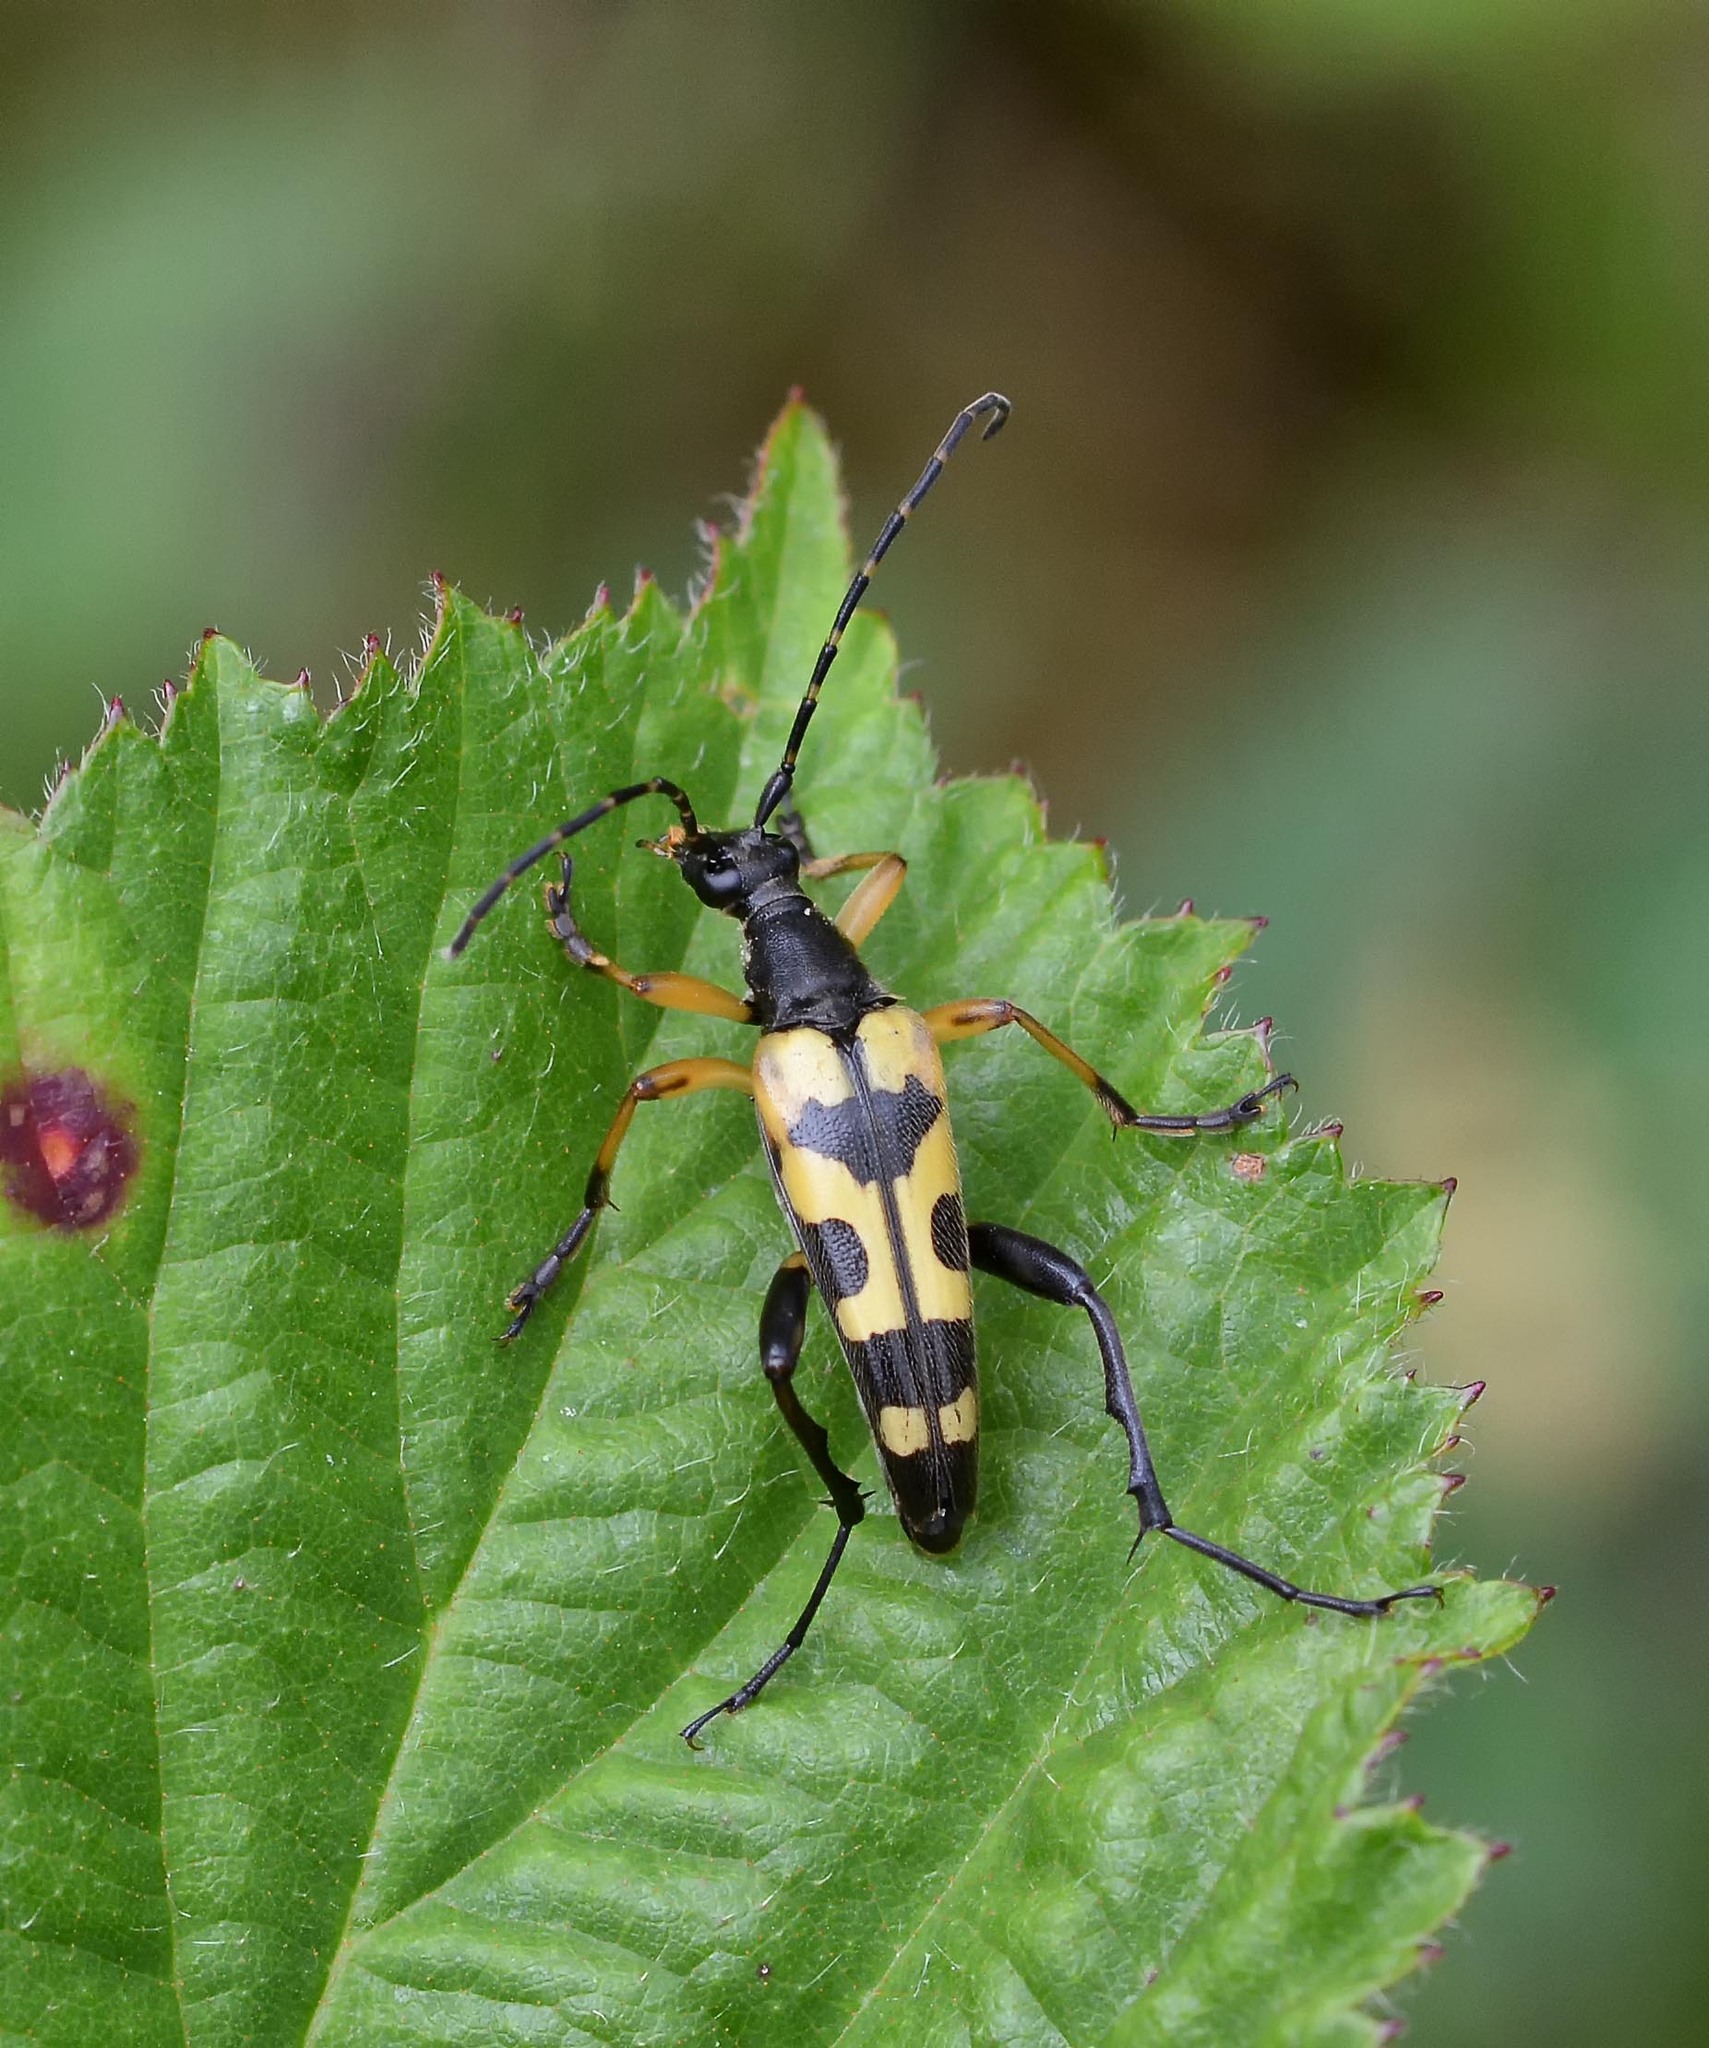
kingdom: Animalia
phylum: Arthropoda
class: Insecta
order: Coleoptera
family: Cerambycidae
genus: Rutpela
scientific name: Rutpela maculata
